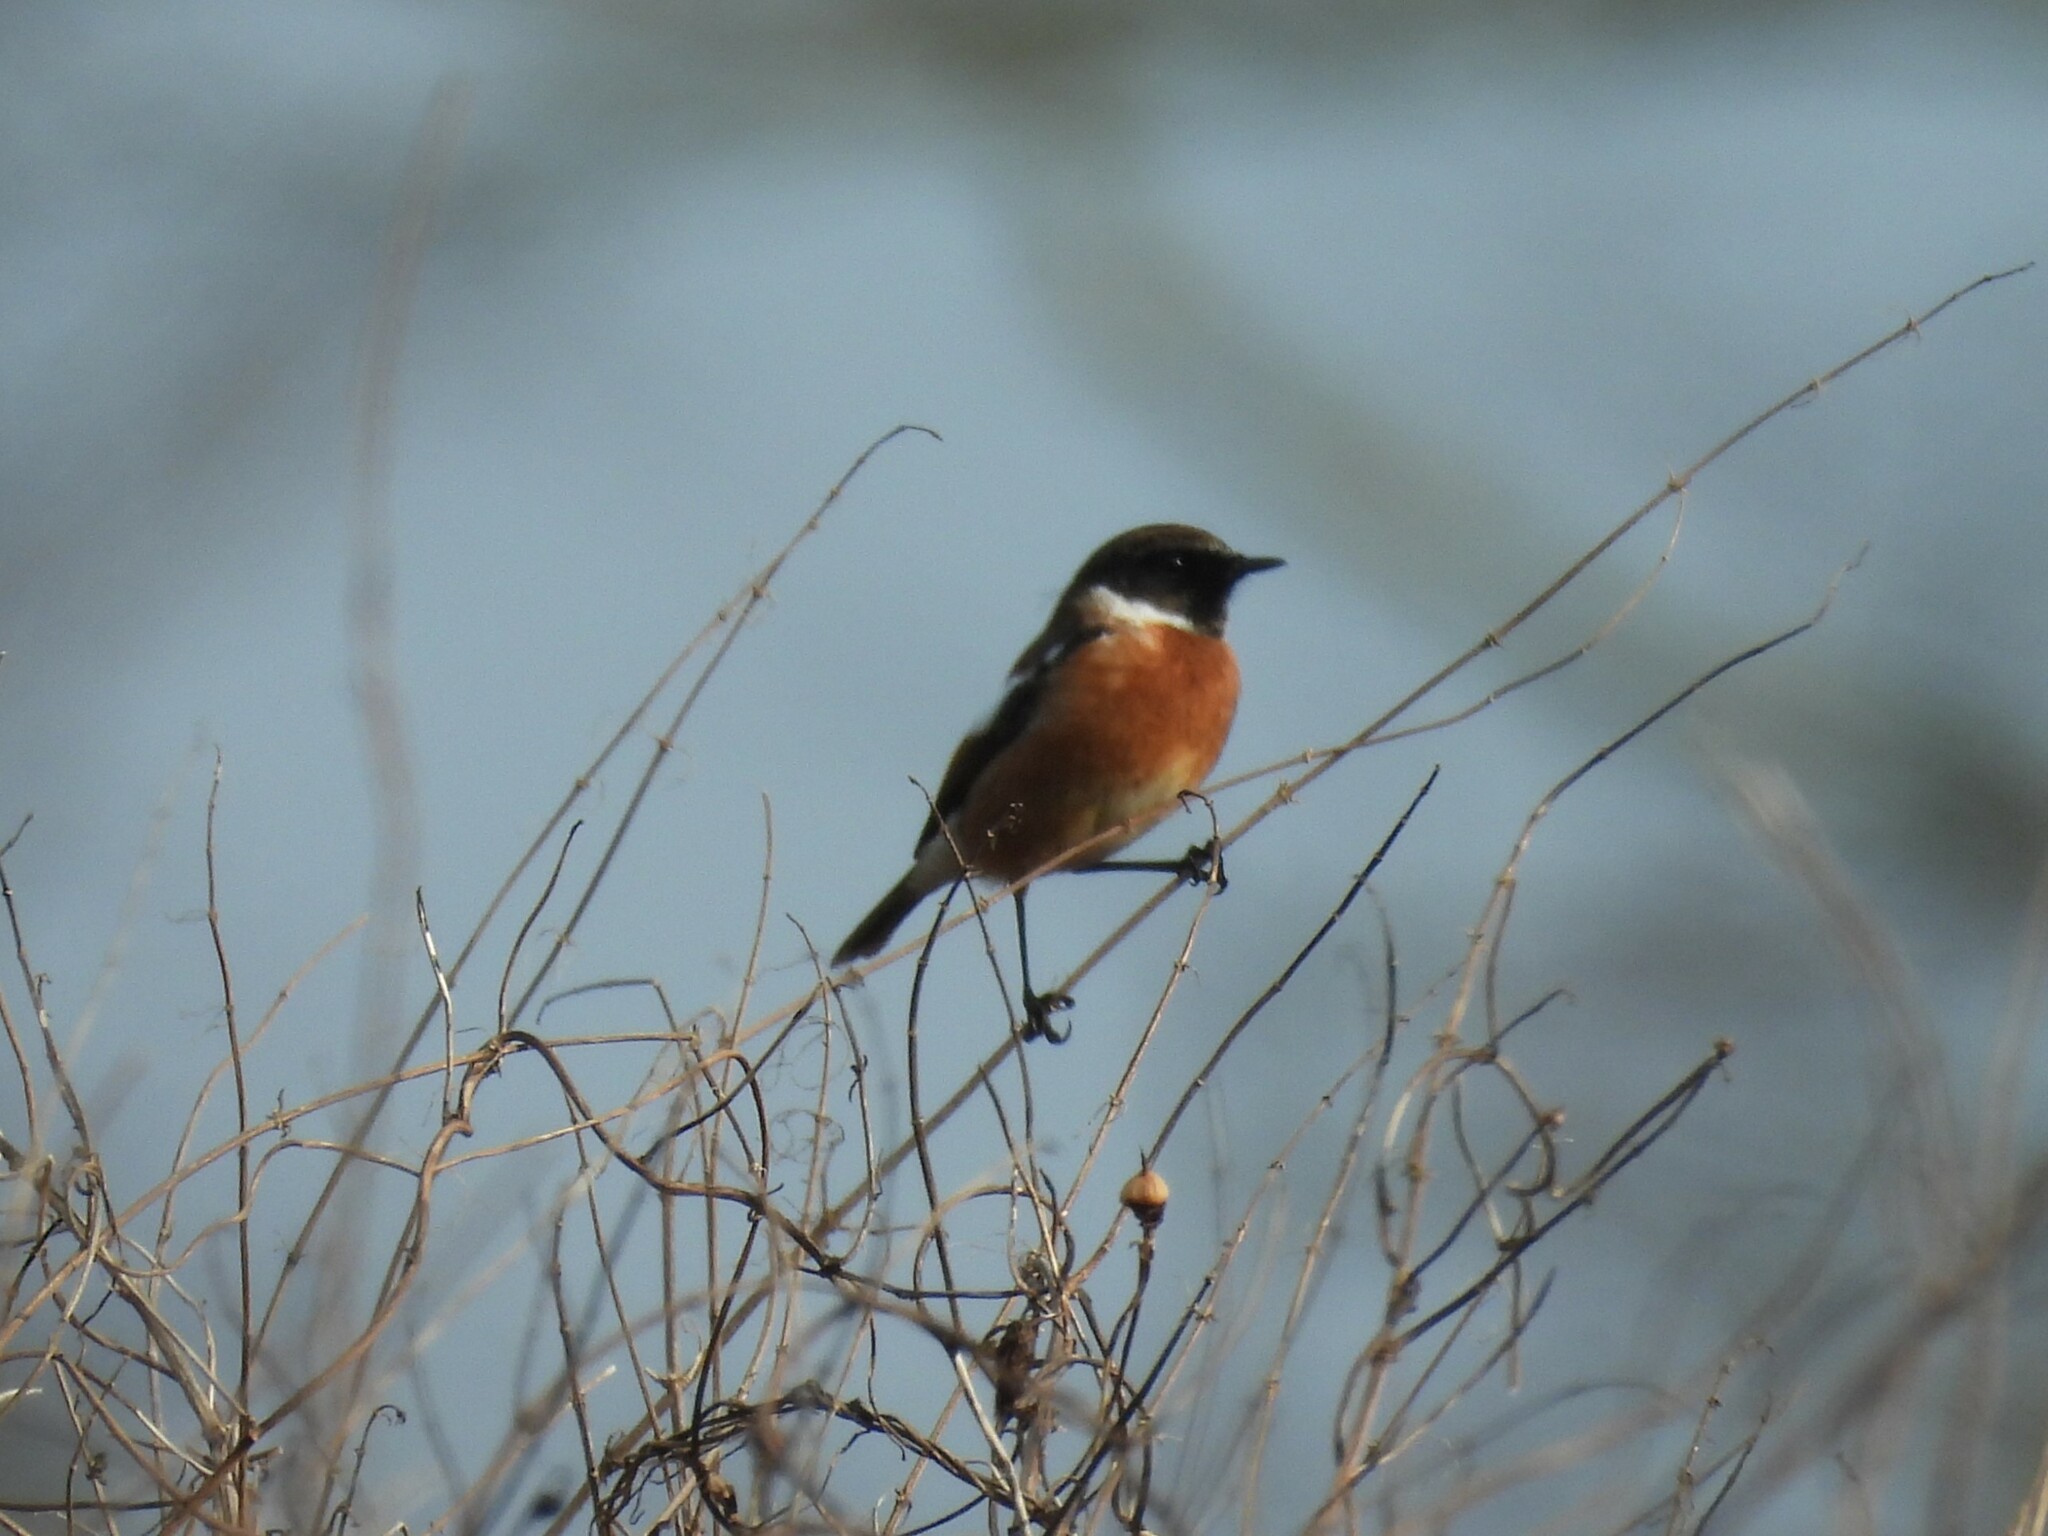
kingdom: Animalia
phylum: Chordata
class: Aves
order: Passeriformes
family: Muscicapidae
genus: Saxicola
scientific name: Saxicola rubicola
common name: European stonechat
